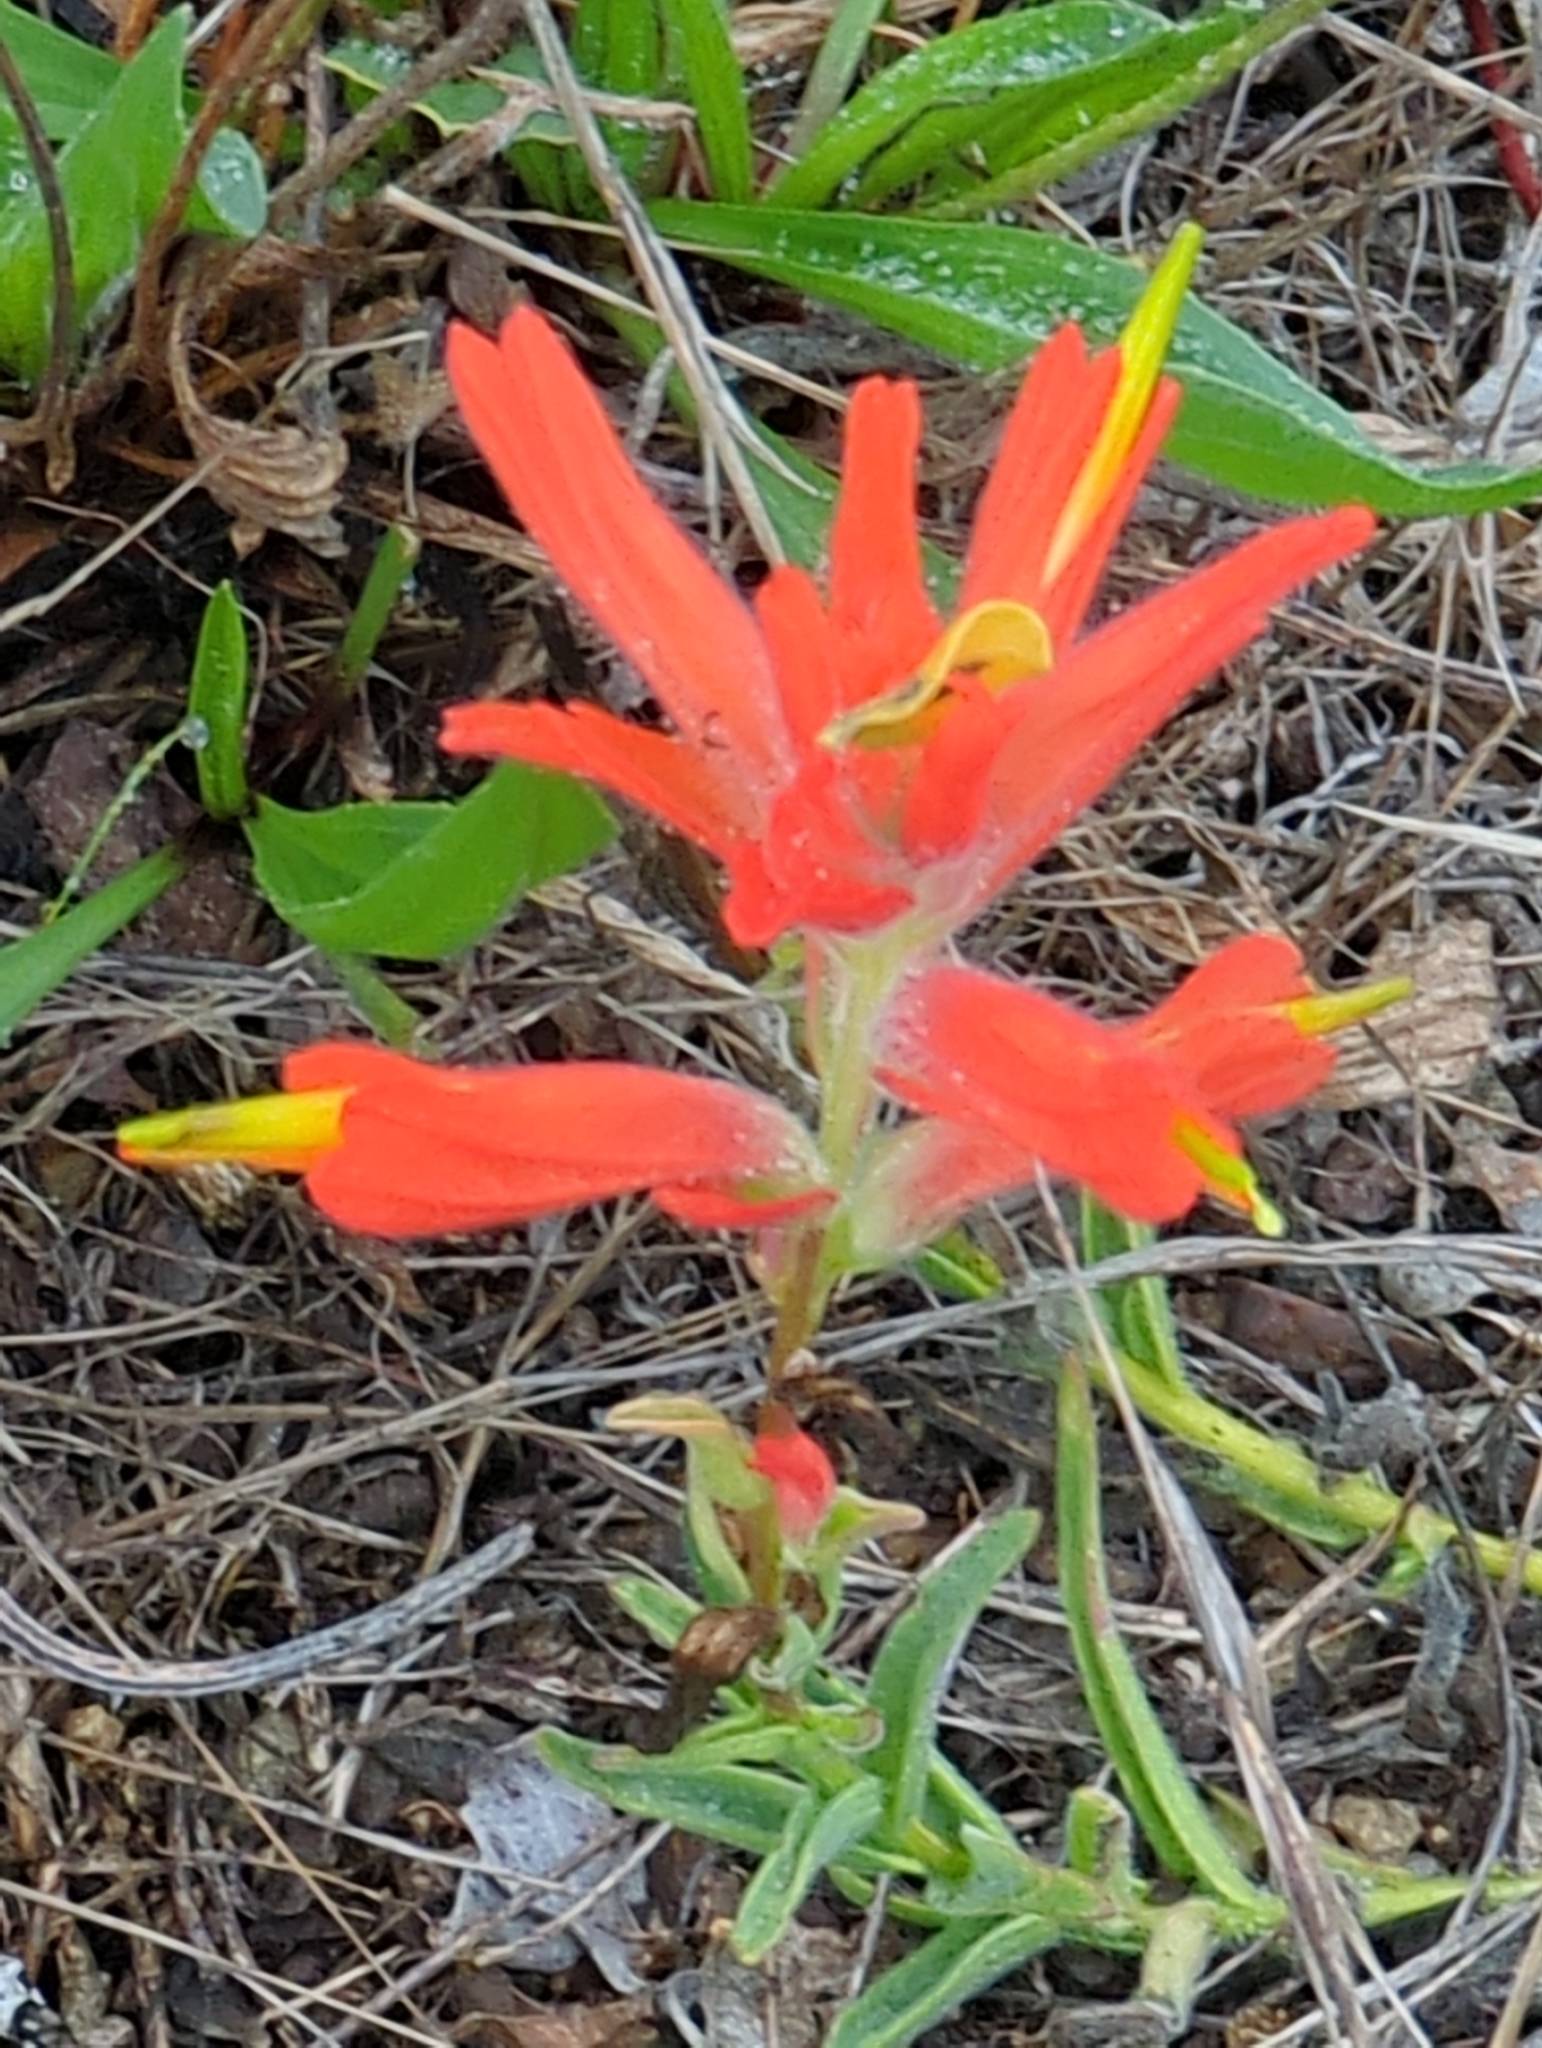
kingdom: Plantae
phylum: Tracheophyta
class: Magnoliopsida
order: Lamiales
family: Orobanchaceae
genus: Castilleja
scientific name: Castilleja subinclusa
